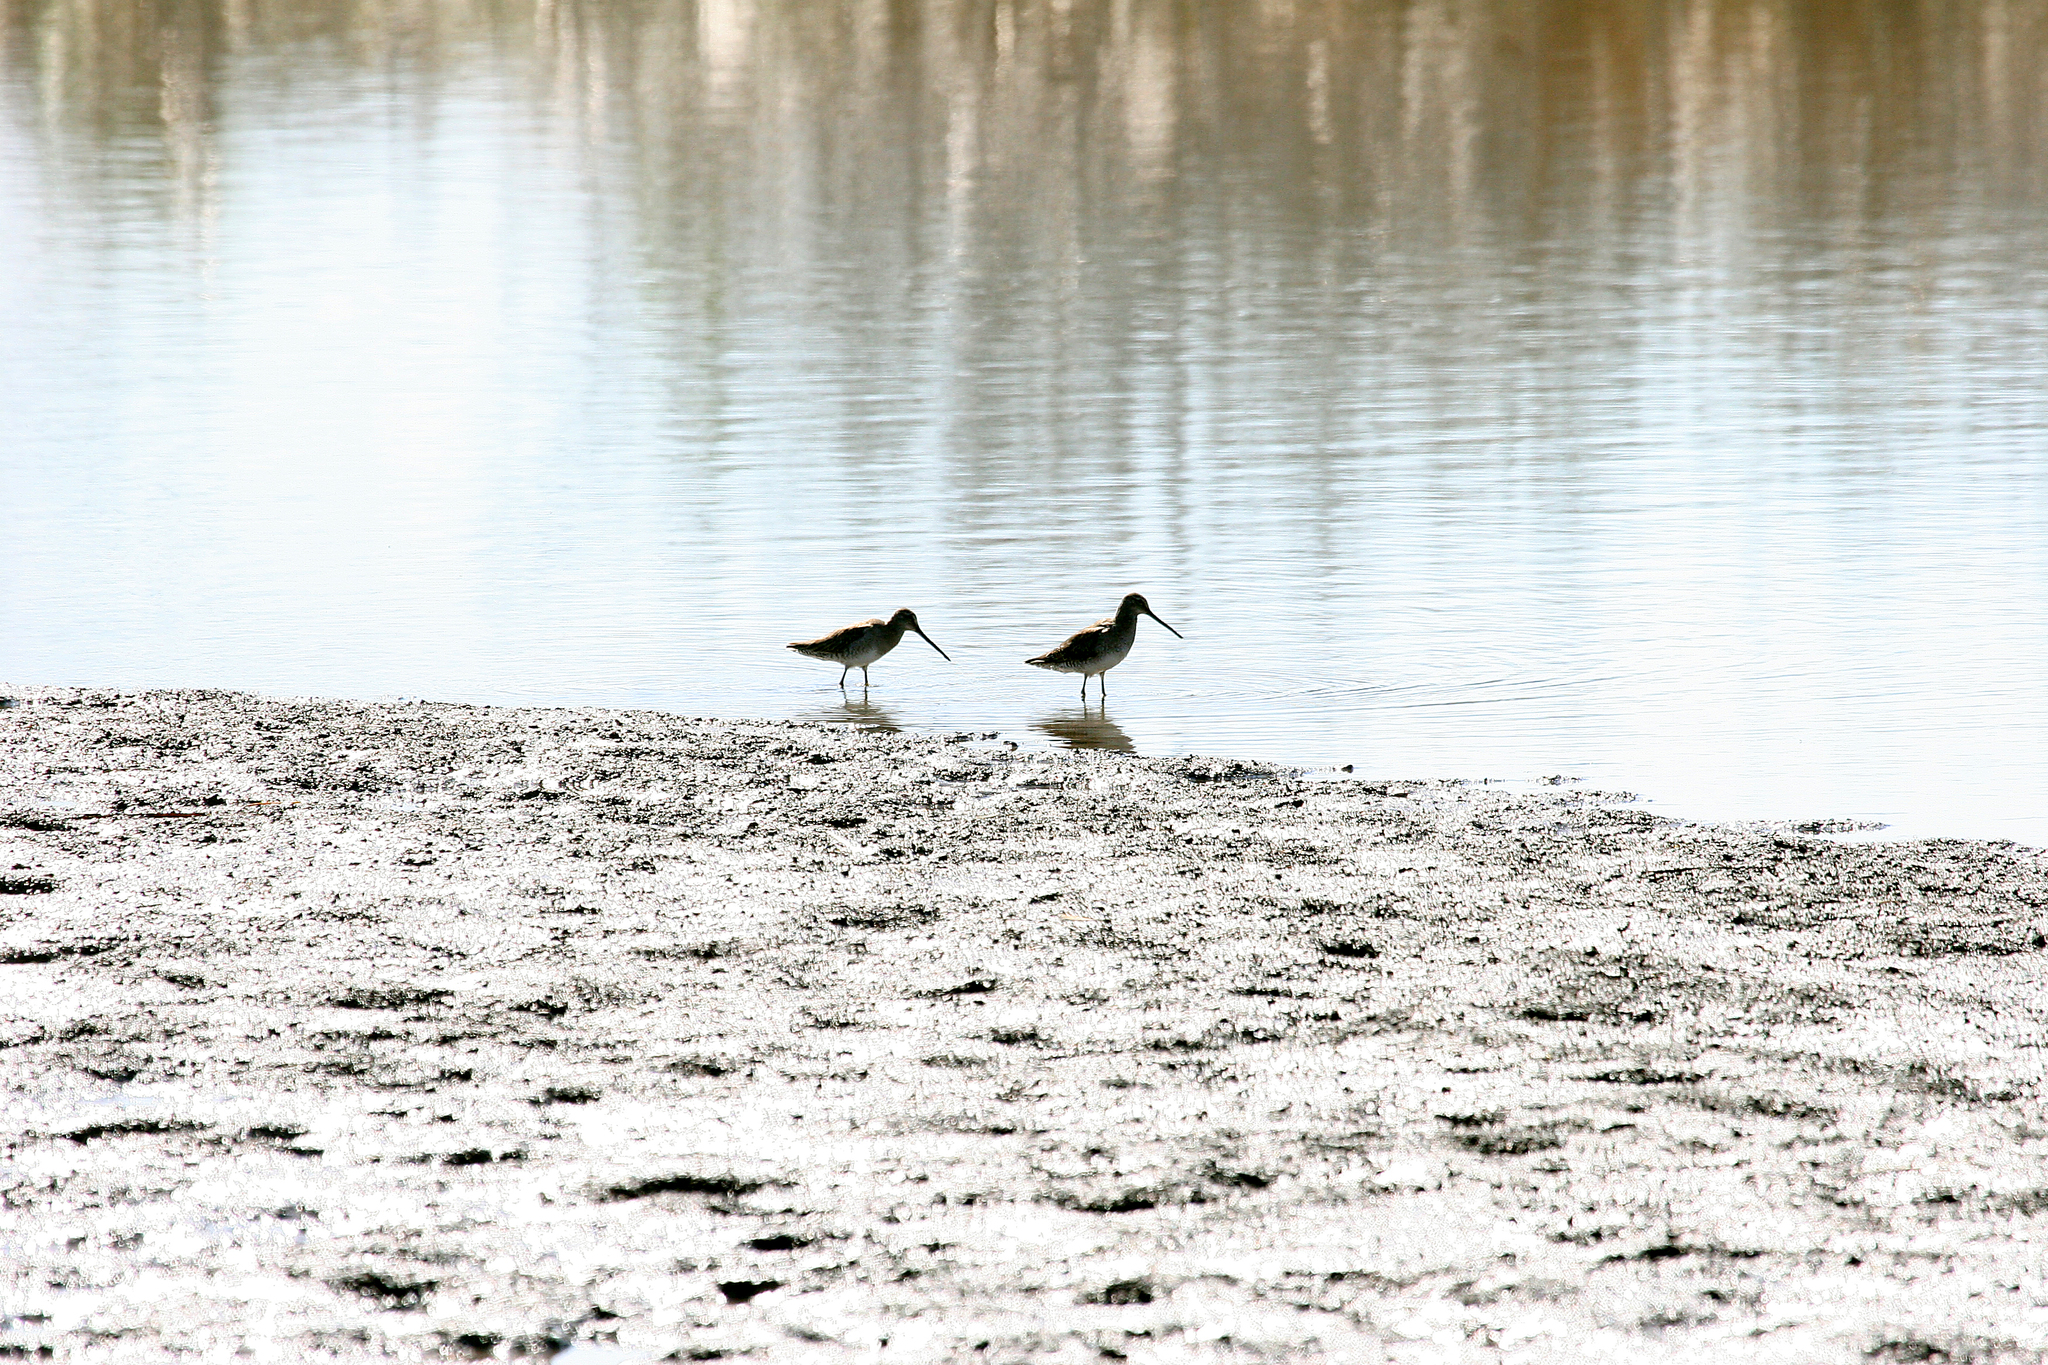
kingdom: Animalia
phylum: Chordata
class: Aves
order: Charadriiformes
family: Scolopacidae
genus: Limnodromus
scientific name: Limnodromus
